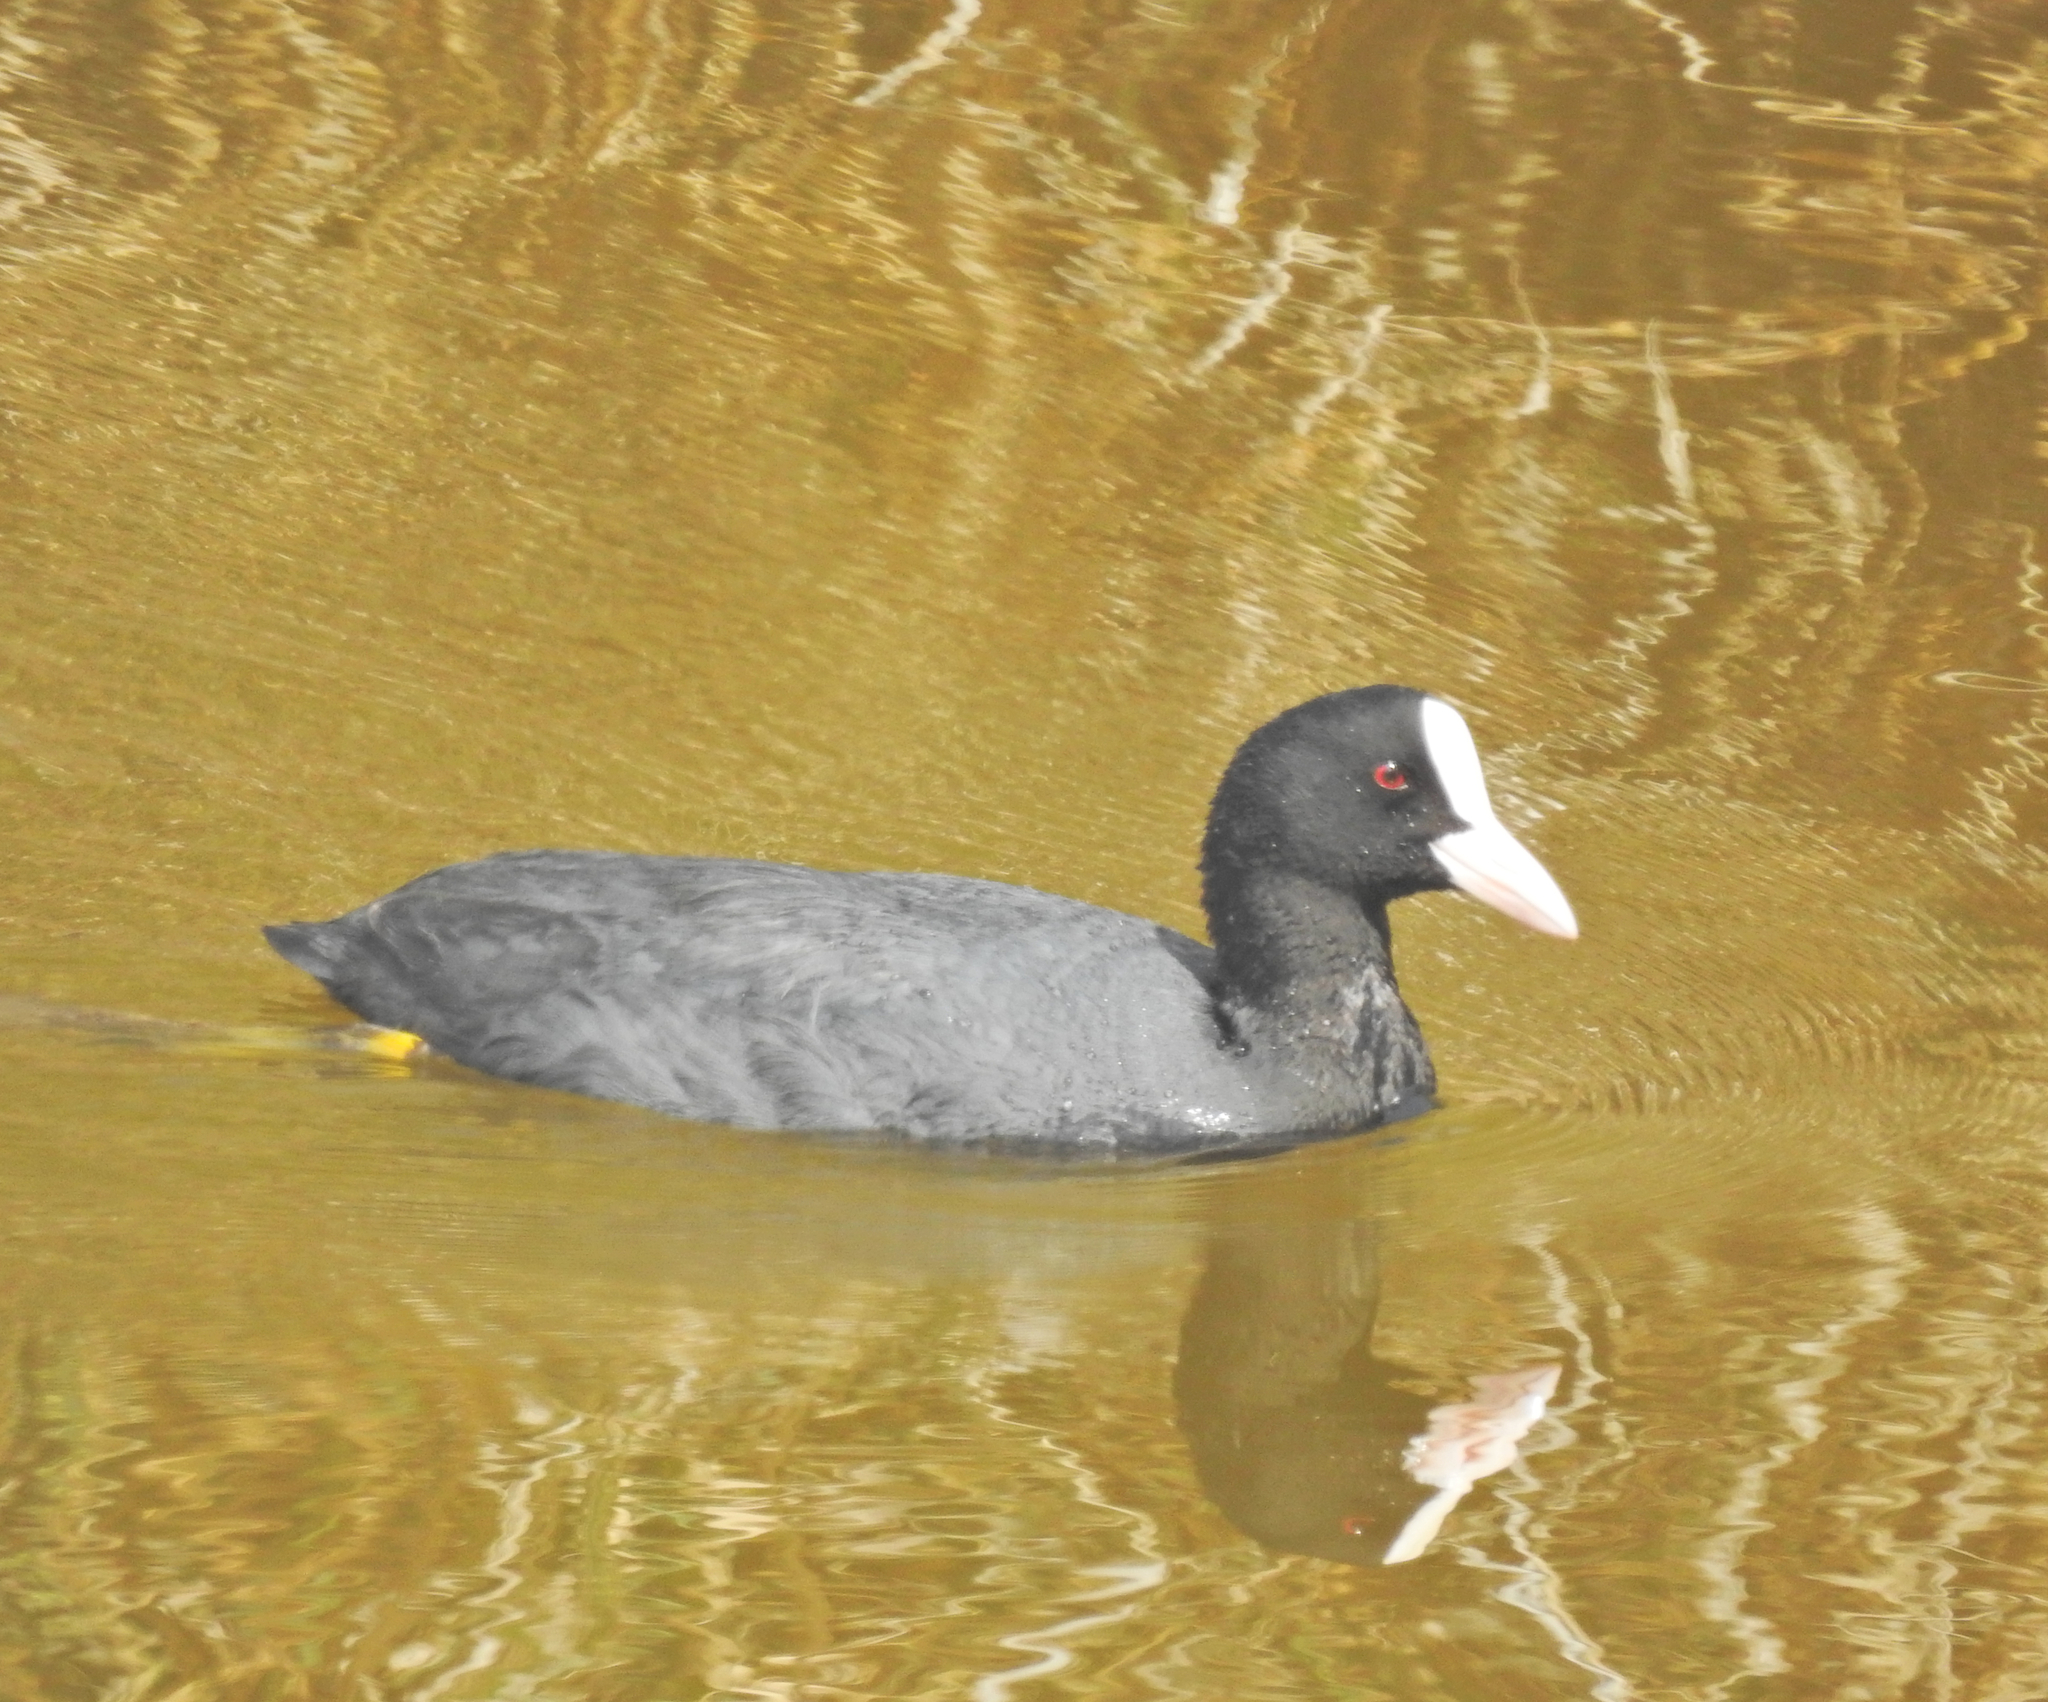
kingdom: Animalia
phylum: Chordata
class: Aves
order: Gruiformes
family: Rallidae
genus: Fulica
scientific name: Fulica atra
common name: Eurasian coot
